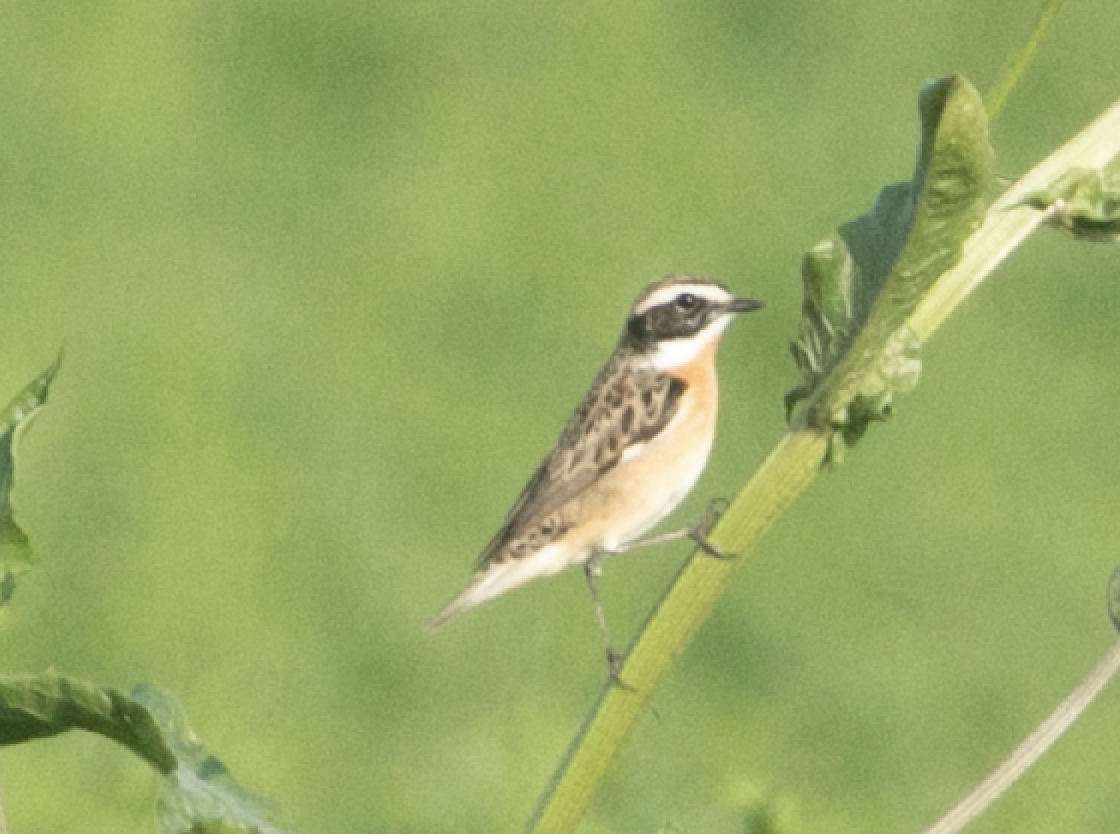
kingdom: Animalia
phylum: Chordata
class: Aves
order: Passeriformes
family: Muscicapidae
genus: Saxicola
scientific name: Saxicola rubetra
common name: Whinchat
